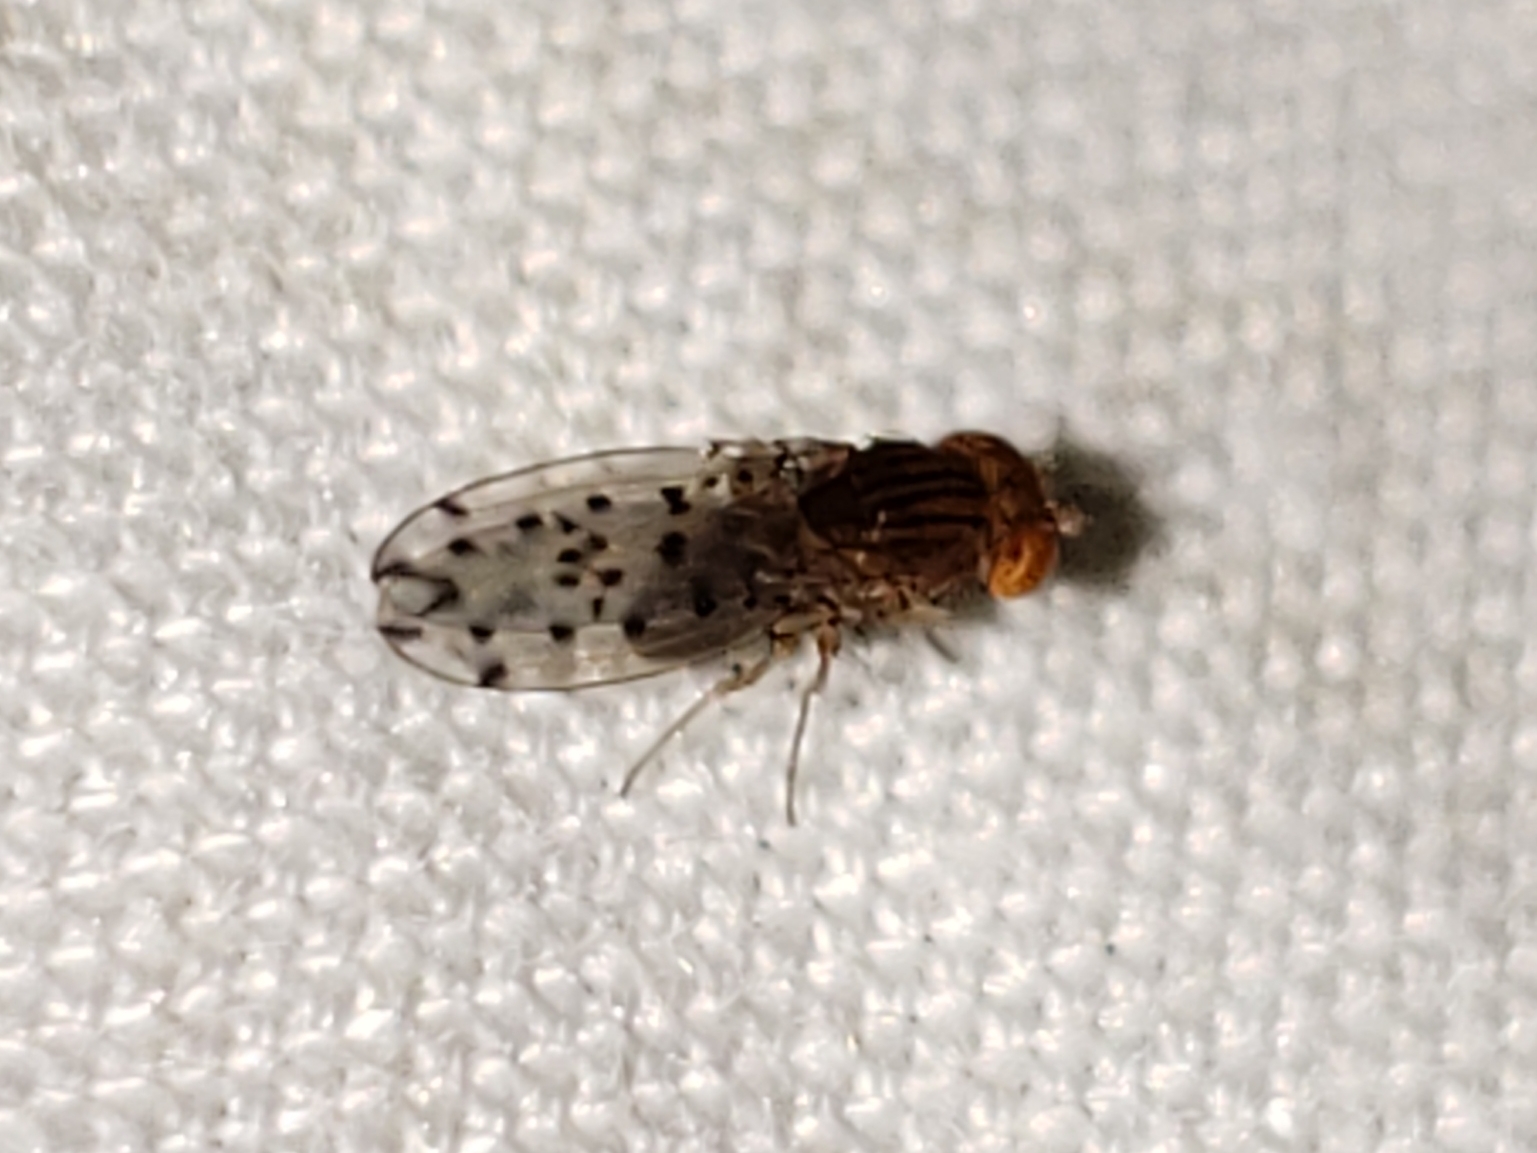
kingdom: Animalia
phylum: Arthropoda
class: Insecta
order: Diptera
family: Drosophilidae
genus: Drosophila
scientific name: Drosophila guttifera
